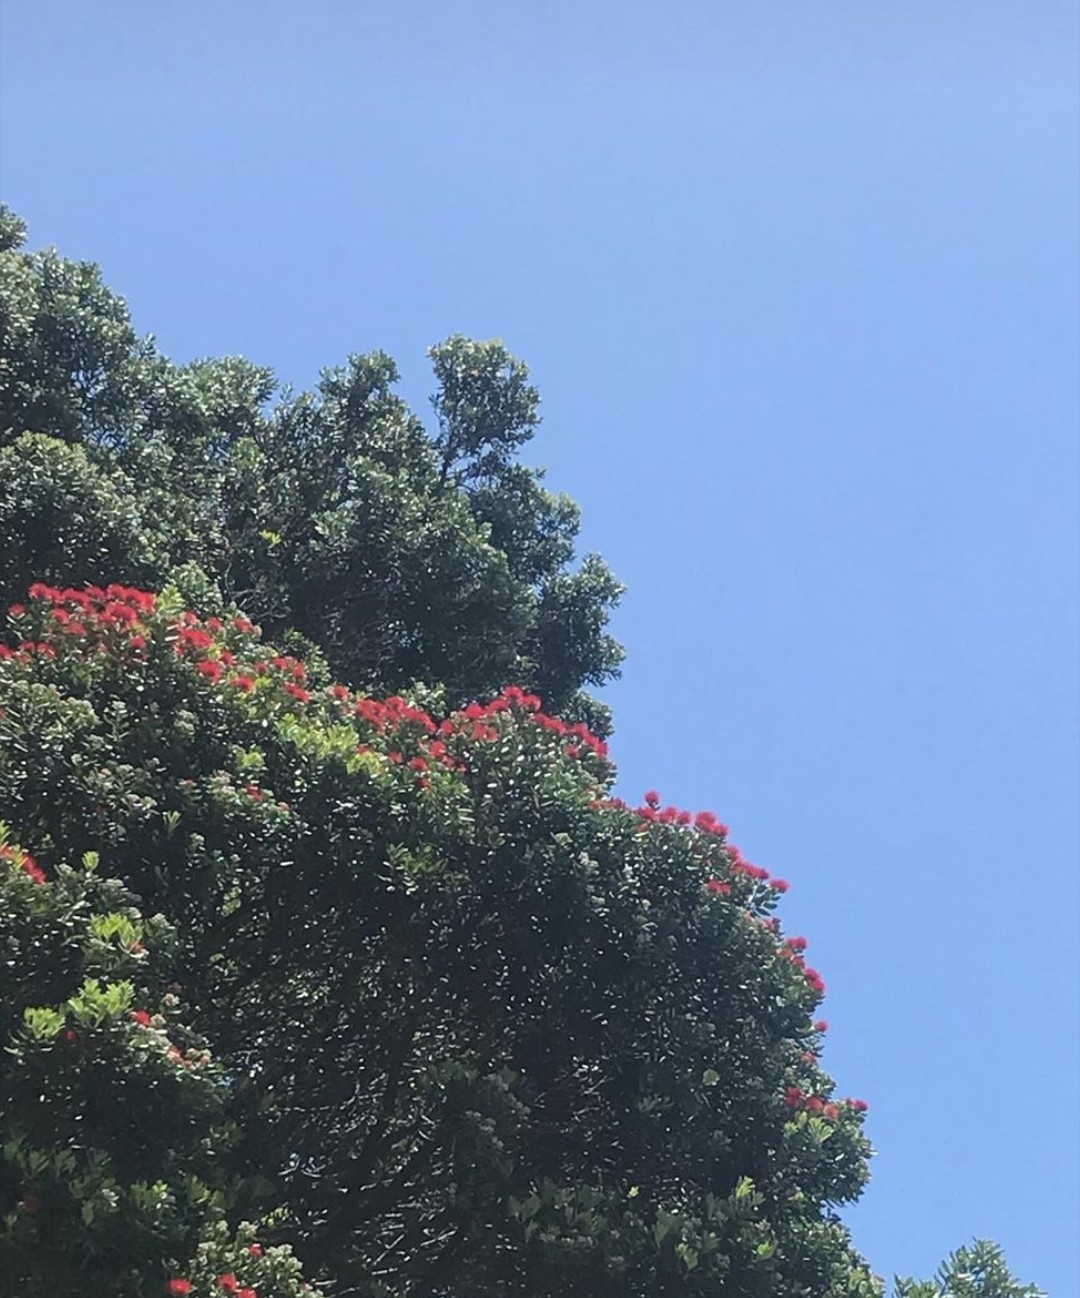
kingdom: Plantae
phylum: Tracheophyta
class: Magnoliopsida
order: Myrtales
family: Myrtaceae
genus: Metrosideros
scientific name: Metrosideros excelsa
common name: New zealand christmastree
